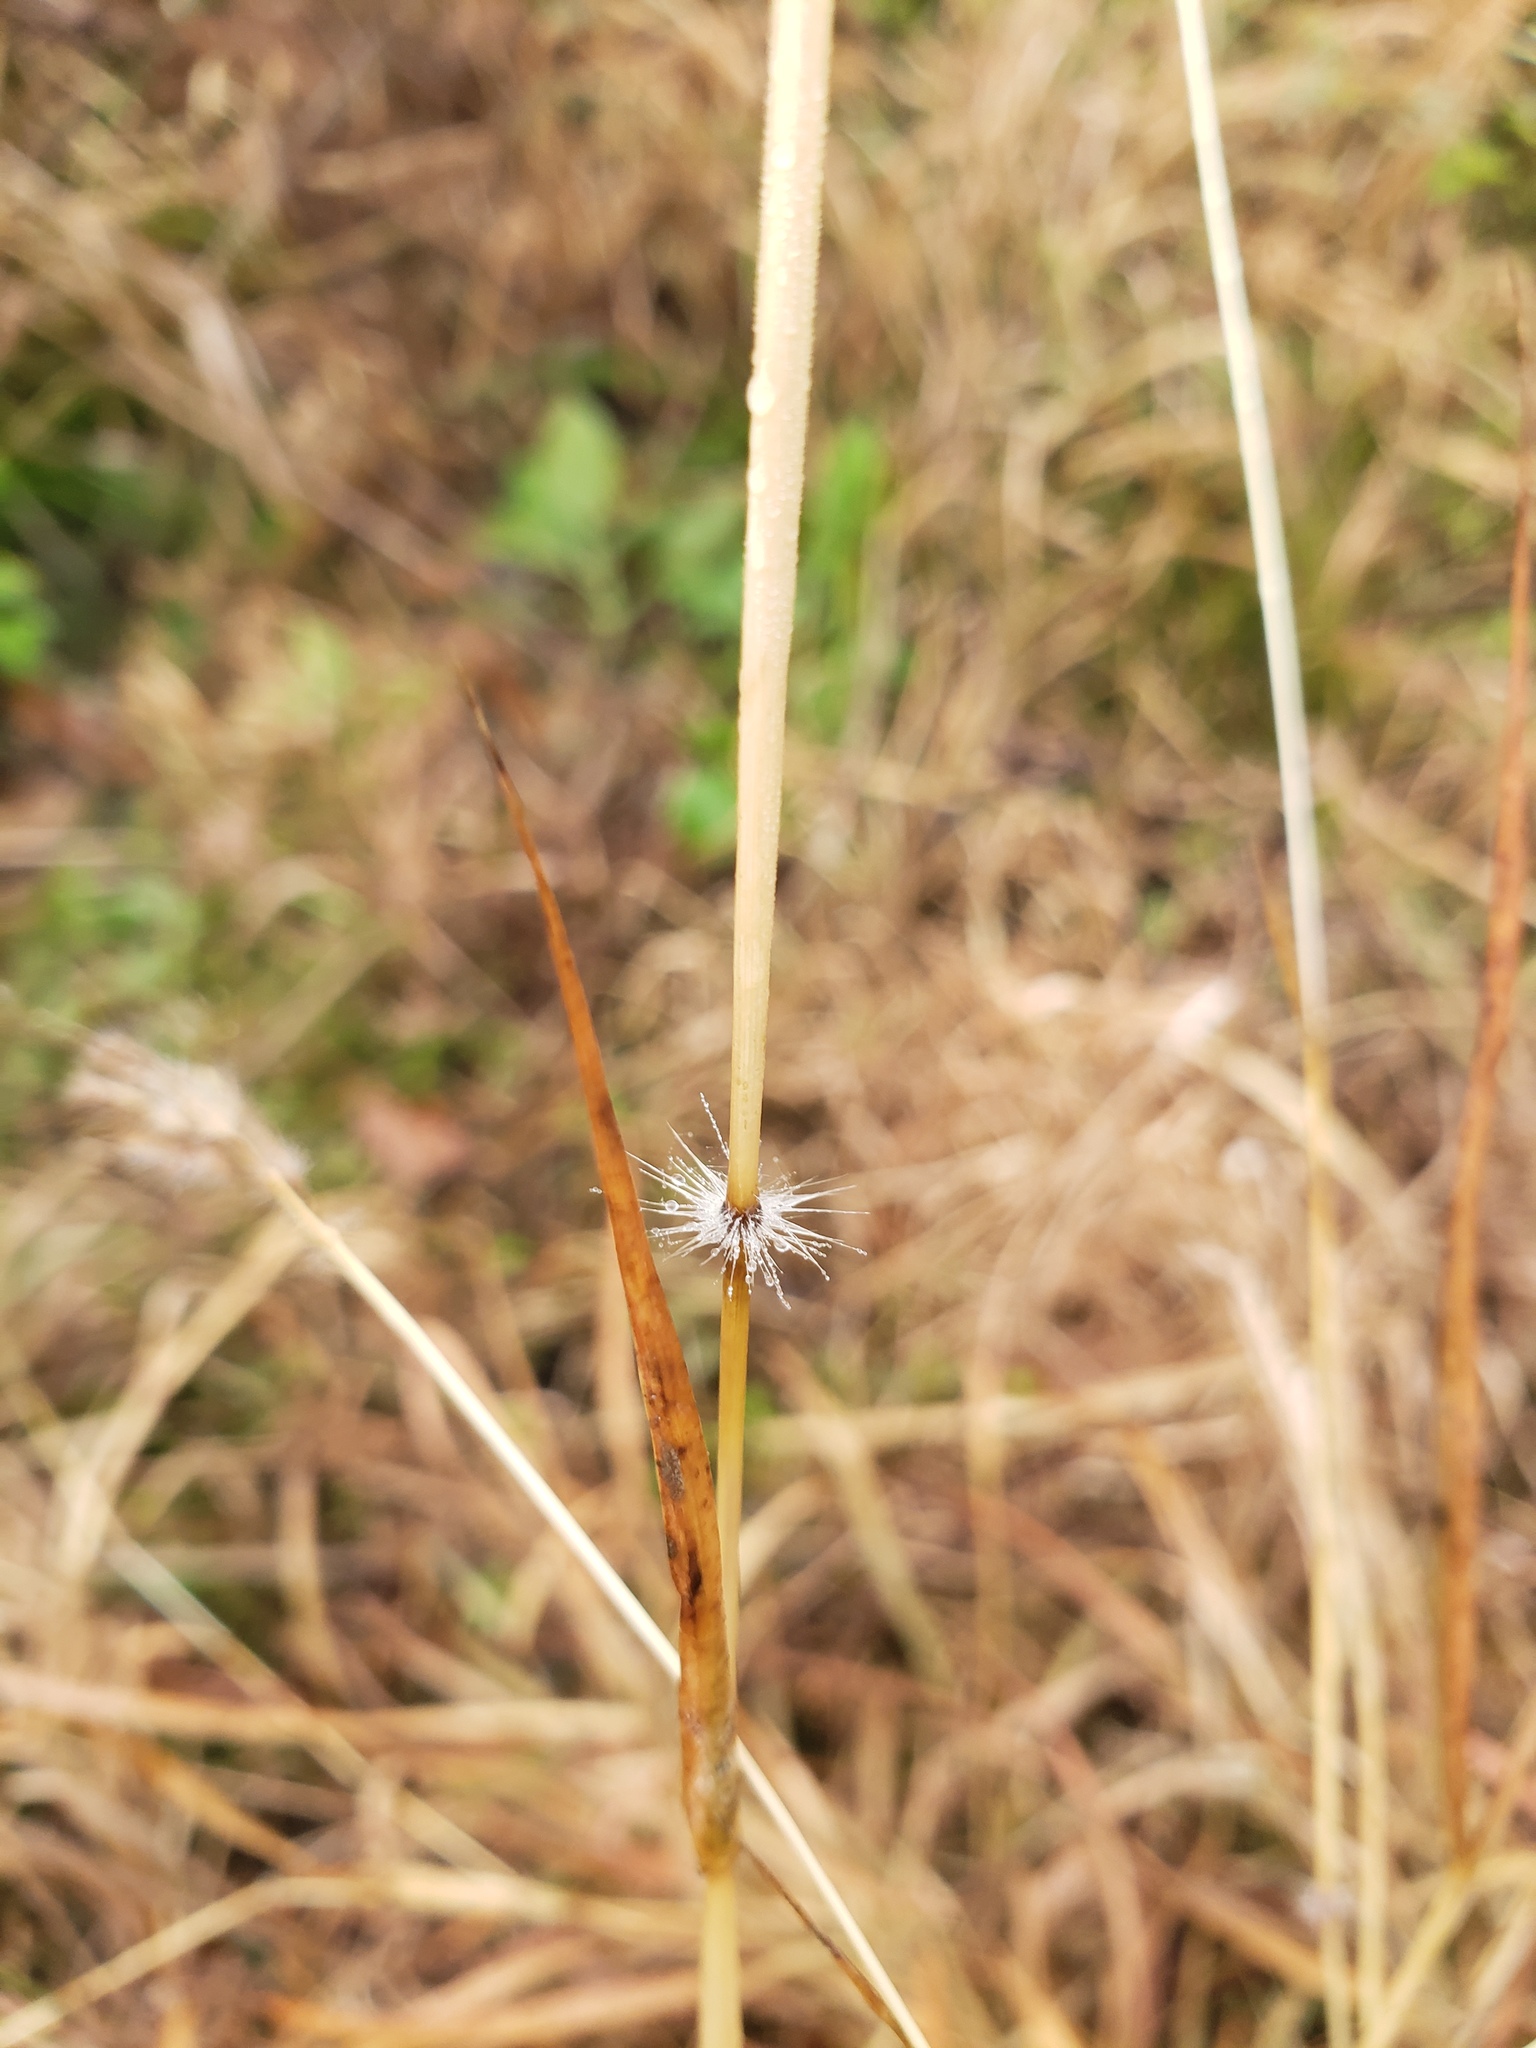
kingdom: Plantae
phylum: Tracheophyta
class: Liliopsida
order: Poales
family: Poaceae
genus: Dichanthium
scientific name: Dichanthium annulatum
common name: Kleberg's bluestem
